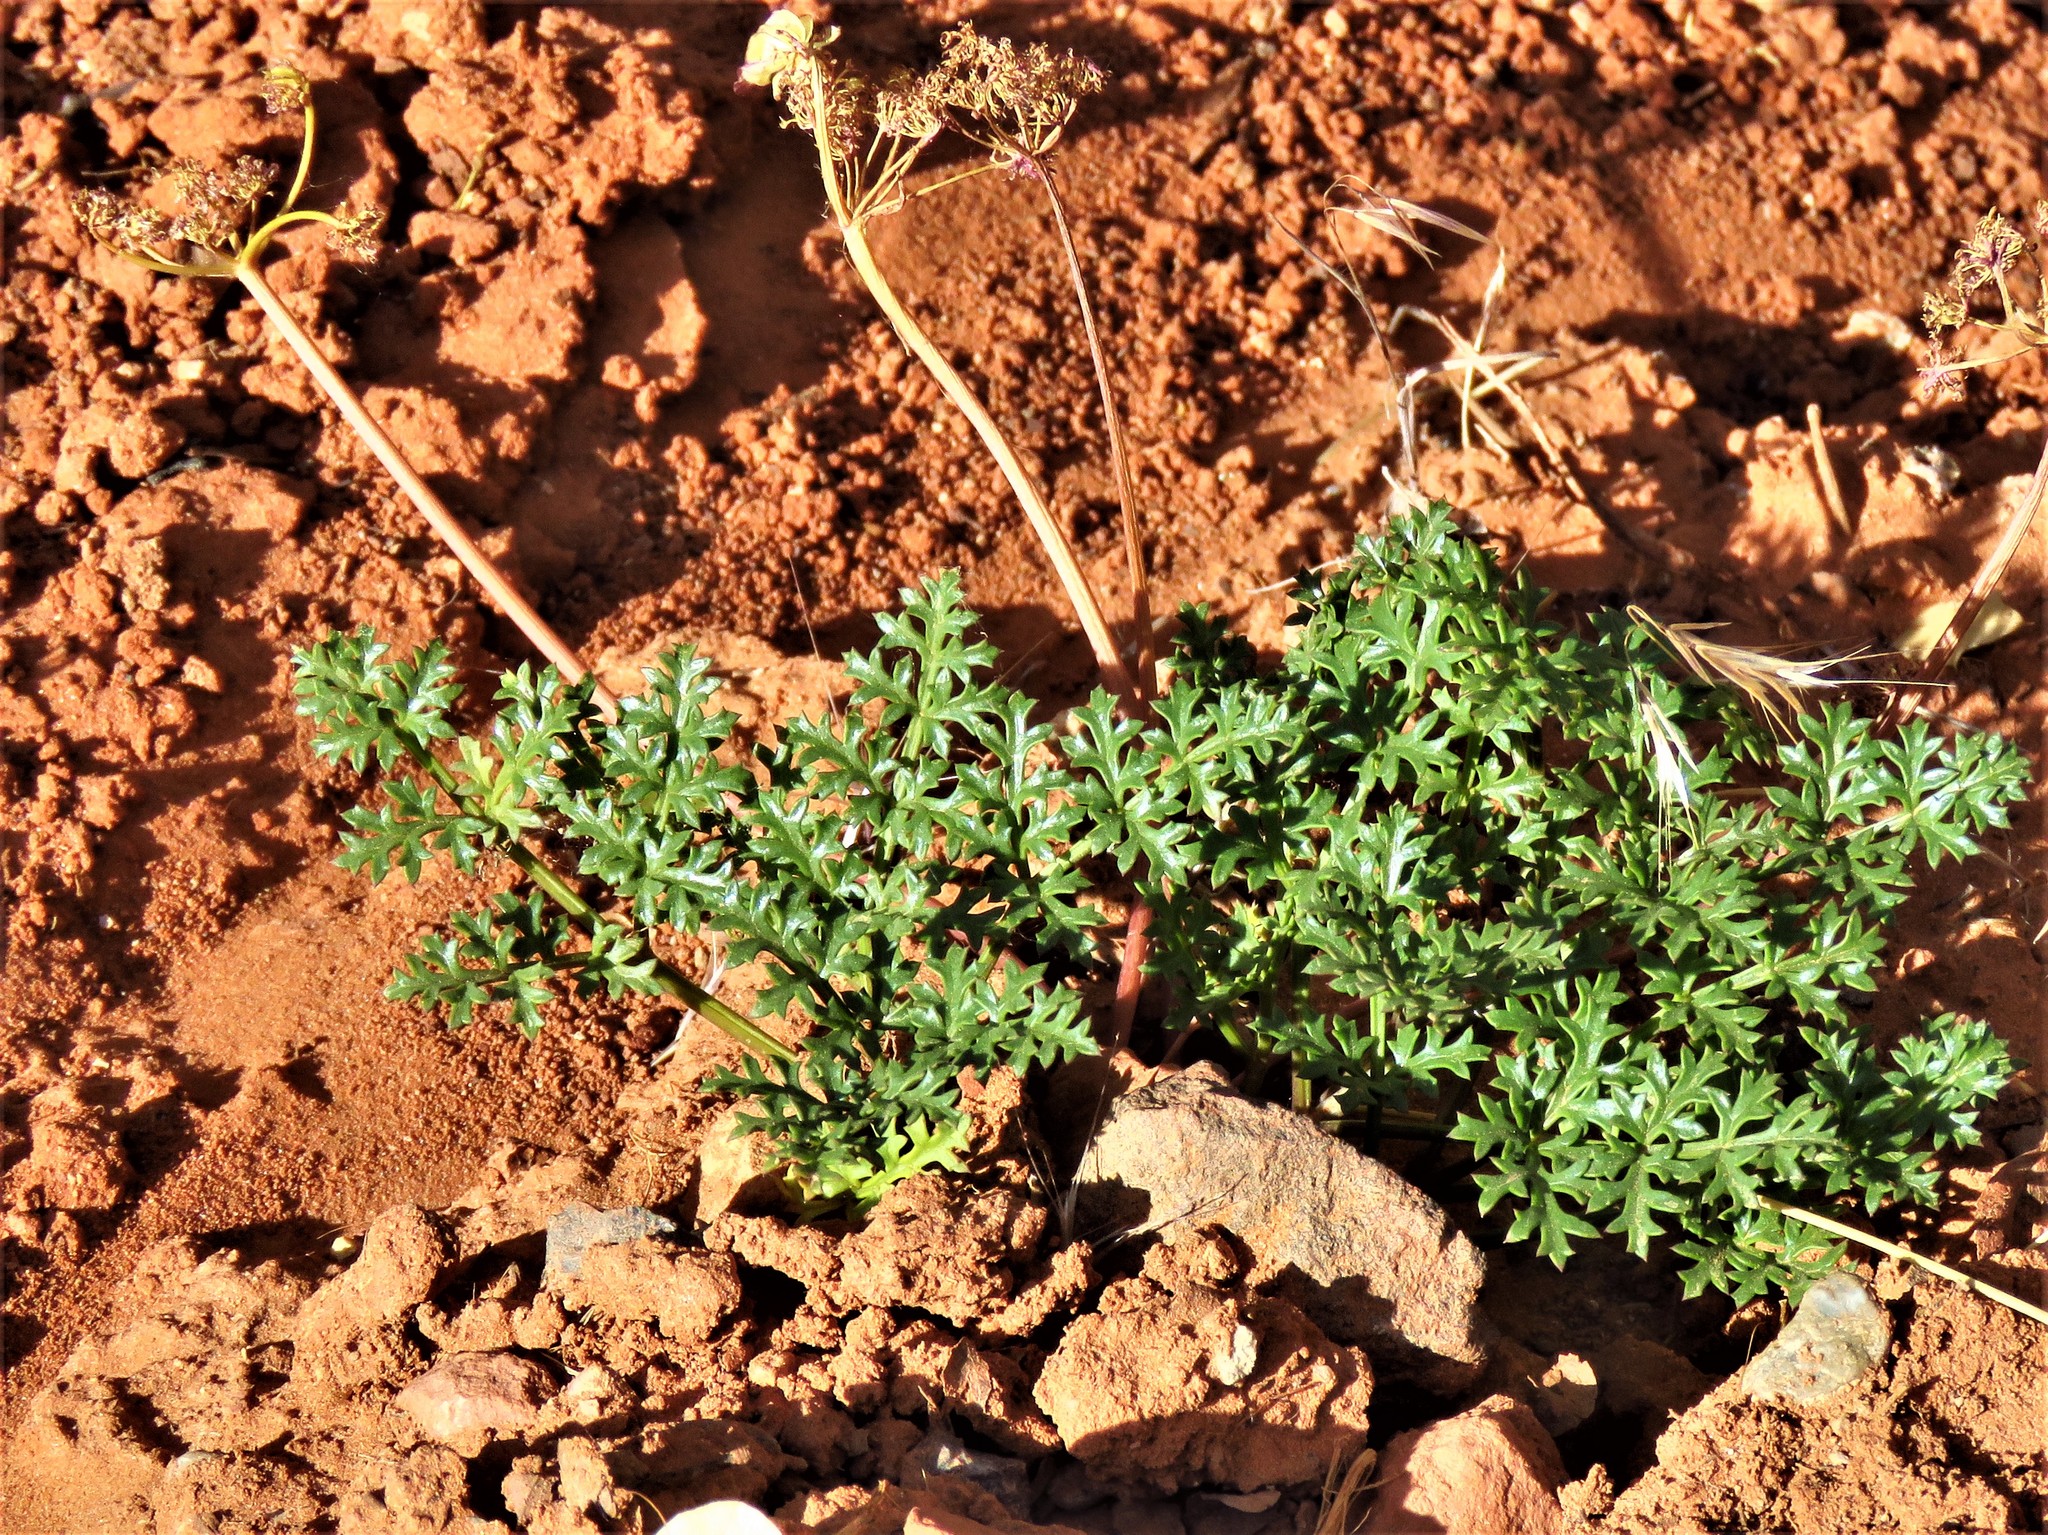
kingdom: Plantae
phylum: Tracheophyta
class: Magnoliopsida
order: Apiales
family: Apiaceae
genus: Aulospermum
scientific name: Aulospermum purpureum
